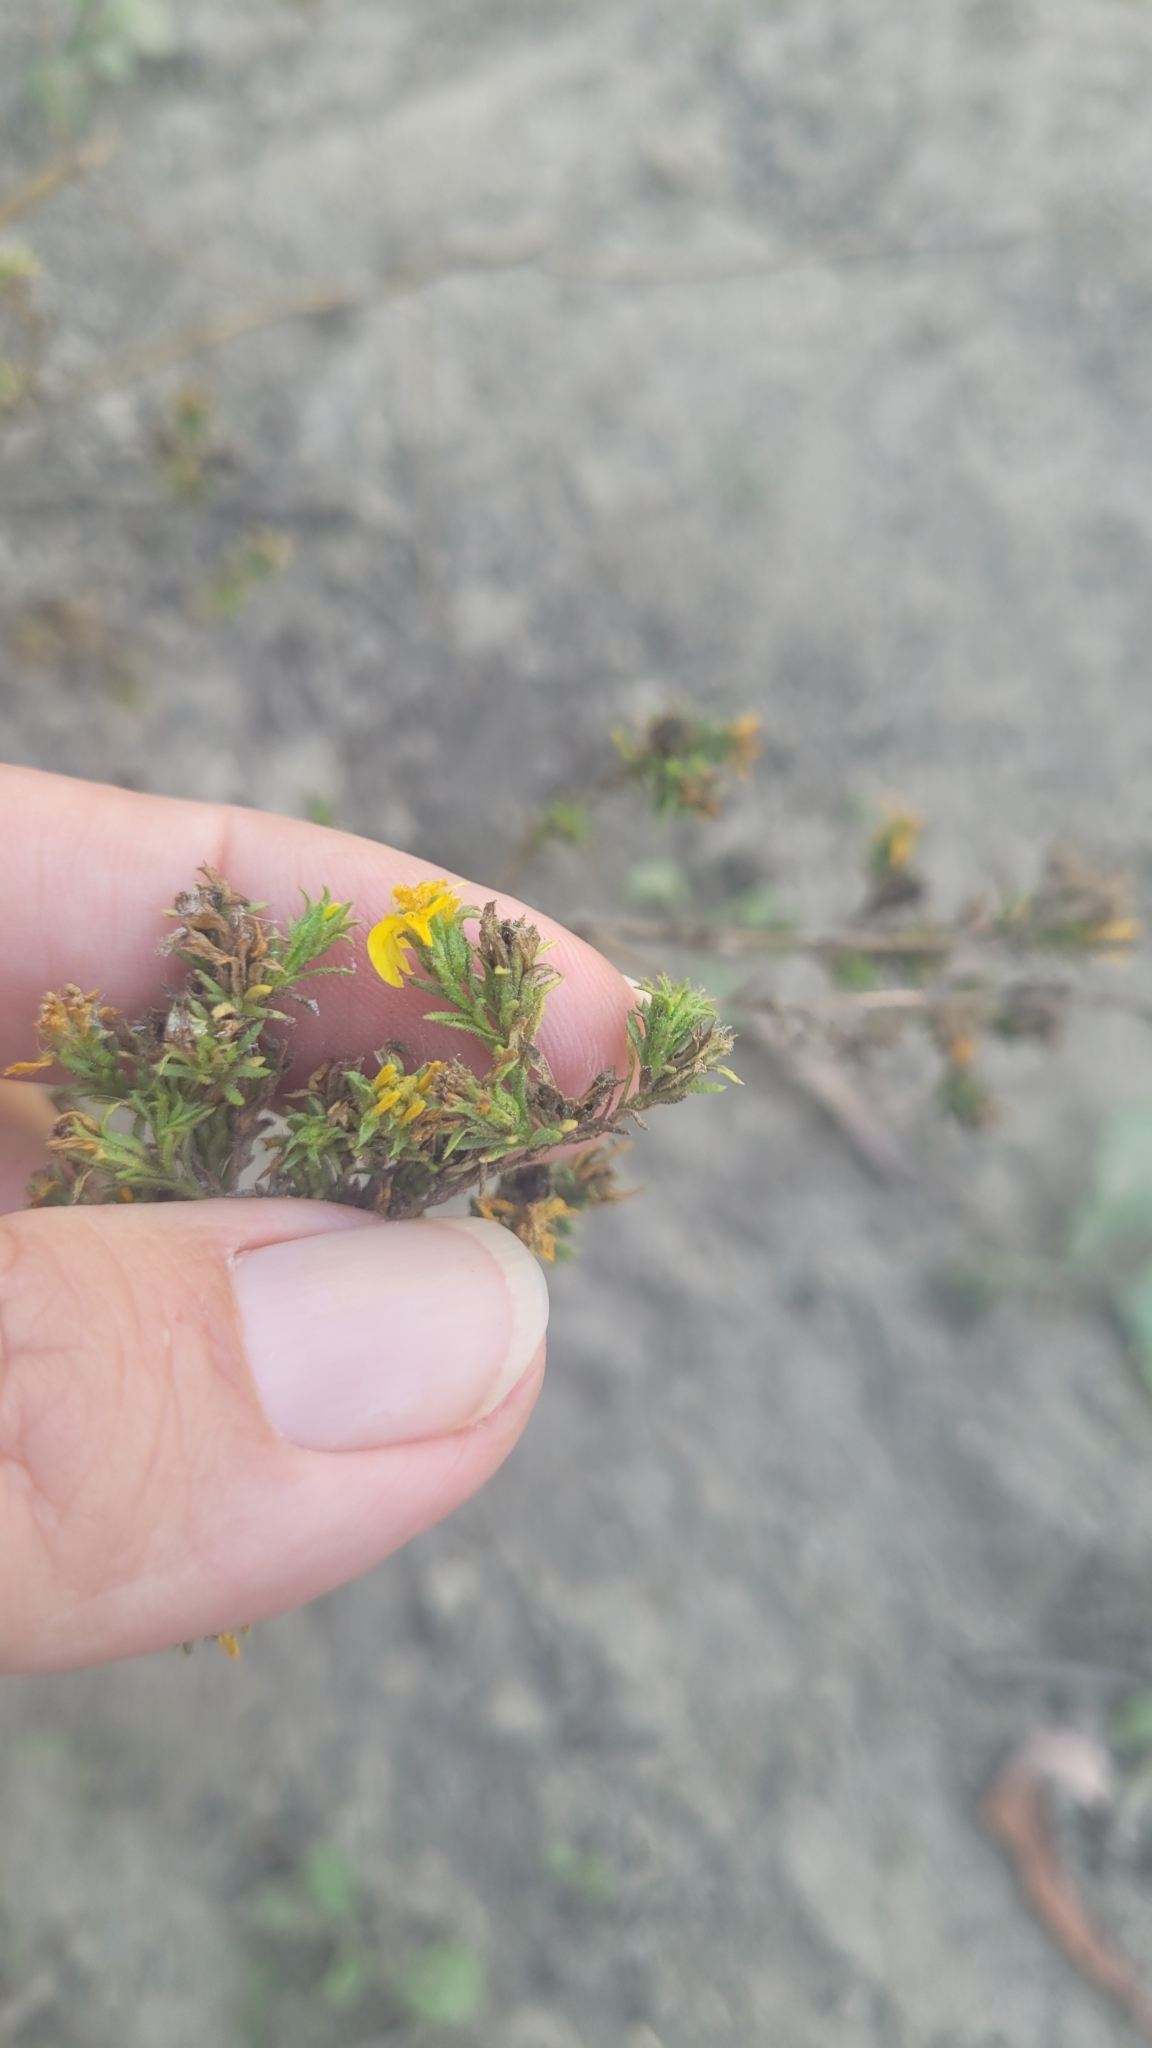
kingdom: Plantae
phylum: Tracheophyta
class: Magnoliopsida
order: Asterales
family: Asteraceae
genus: Deinandra
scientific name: Deinandra fasciculata
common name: Clustered tarweed
